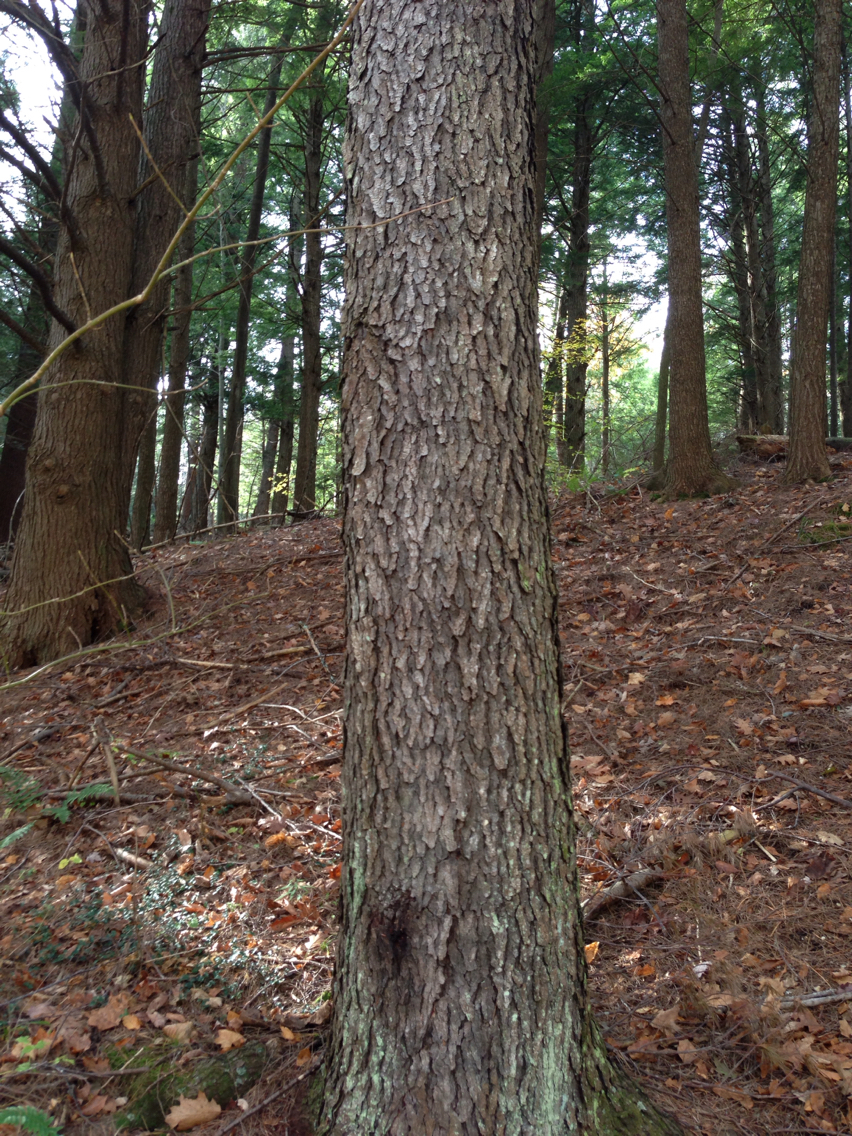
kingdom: Plantae
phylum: Tracheophyta
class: Magnoliopsida
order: Rosales
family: Rosaceae
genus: Prunus
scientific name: Prunus serotina
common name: Black cherry
